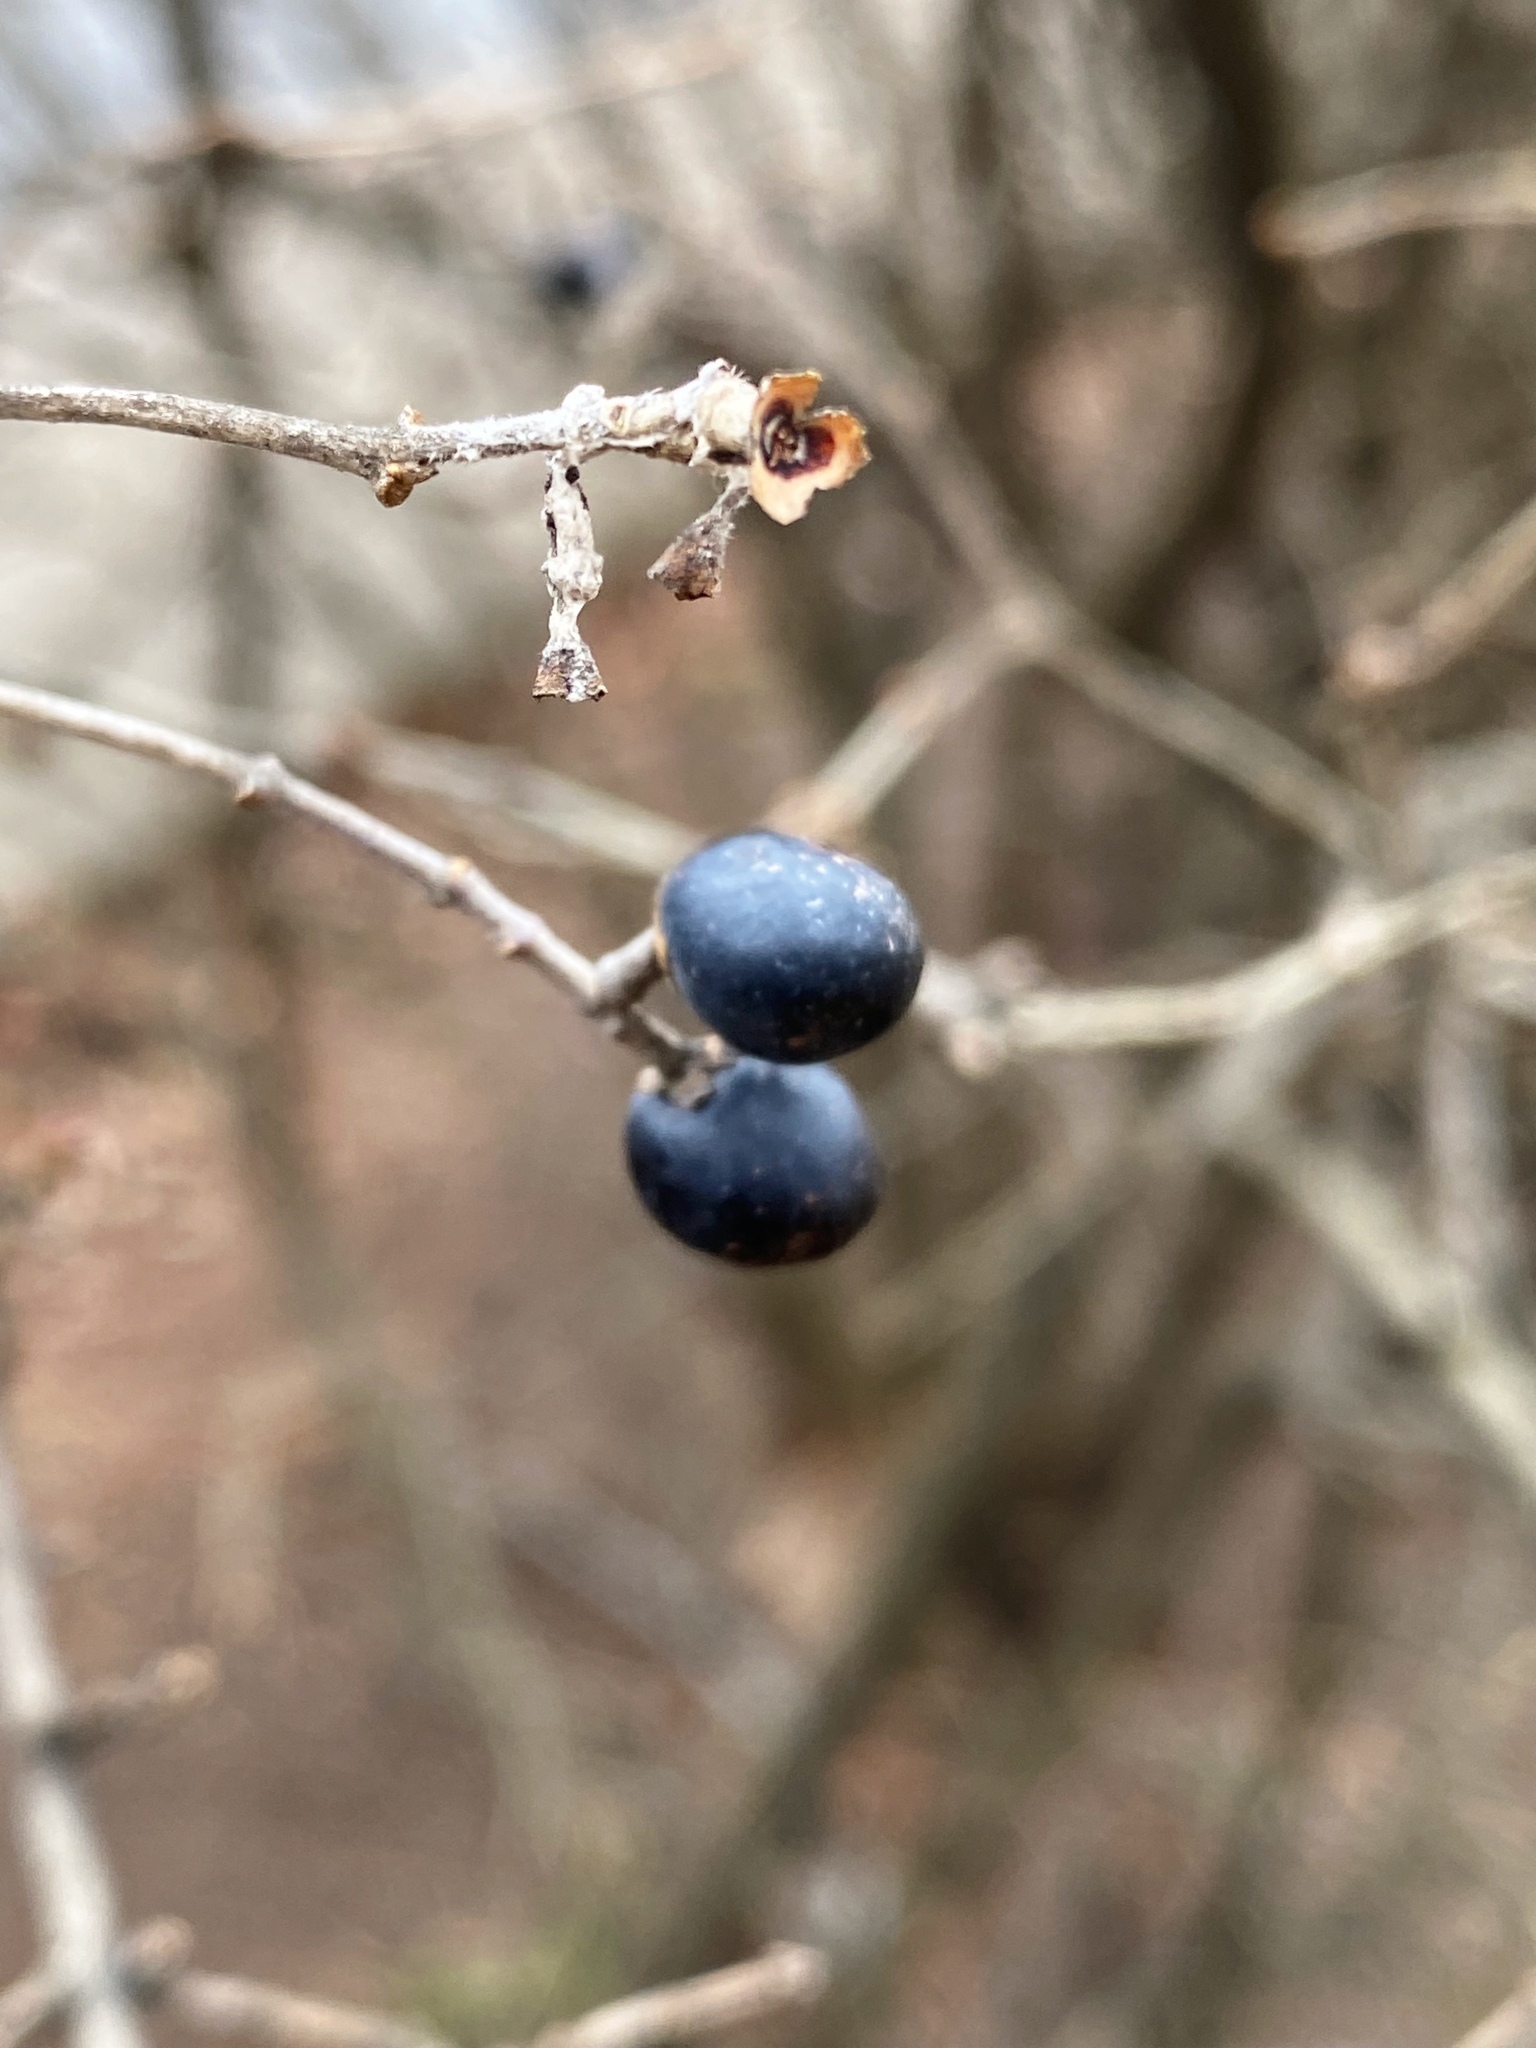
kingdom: Plantae
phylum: Tracheophyta
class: Magnoliopsida
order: Lamiales
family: Oleaceae
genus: Ligustrum
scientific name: Ligustrum obtusifolium
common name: Border privet
